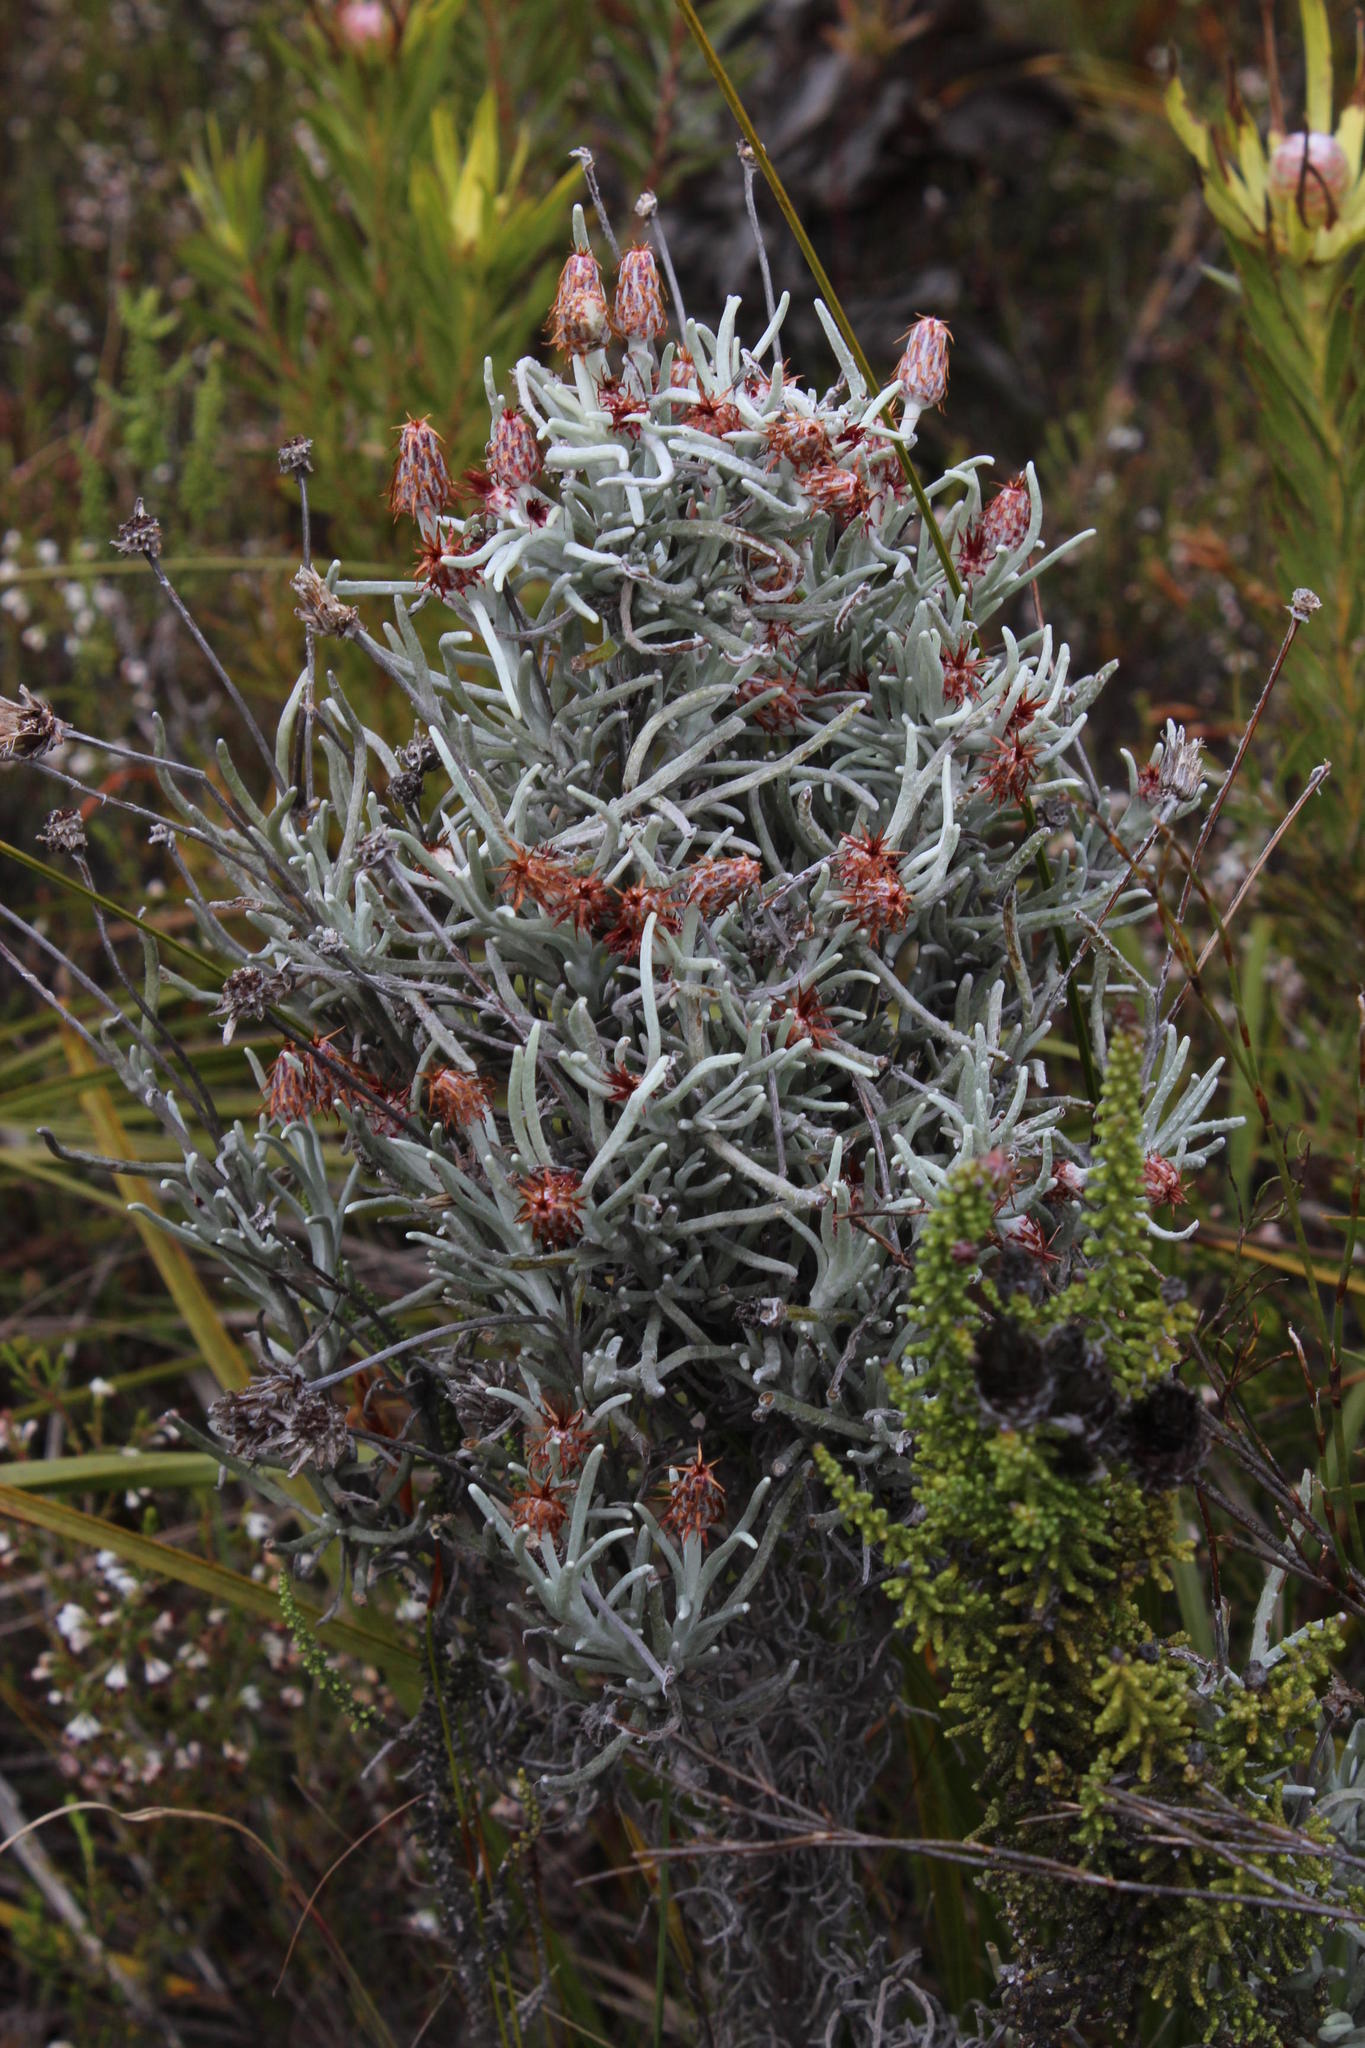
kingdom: Plantae
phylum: Tracheophyta
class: Magnoliopsida
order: Asterales
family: Asteraceae
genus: Syncarpha
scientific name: Syncarpha gnaphaloides
